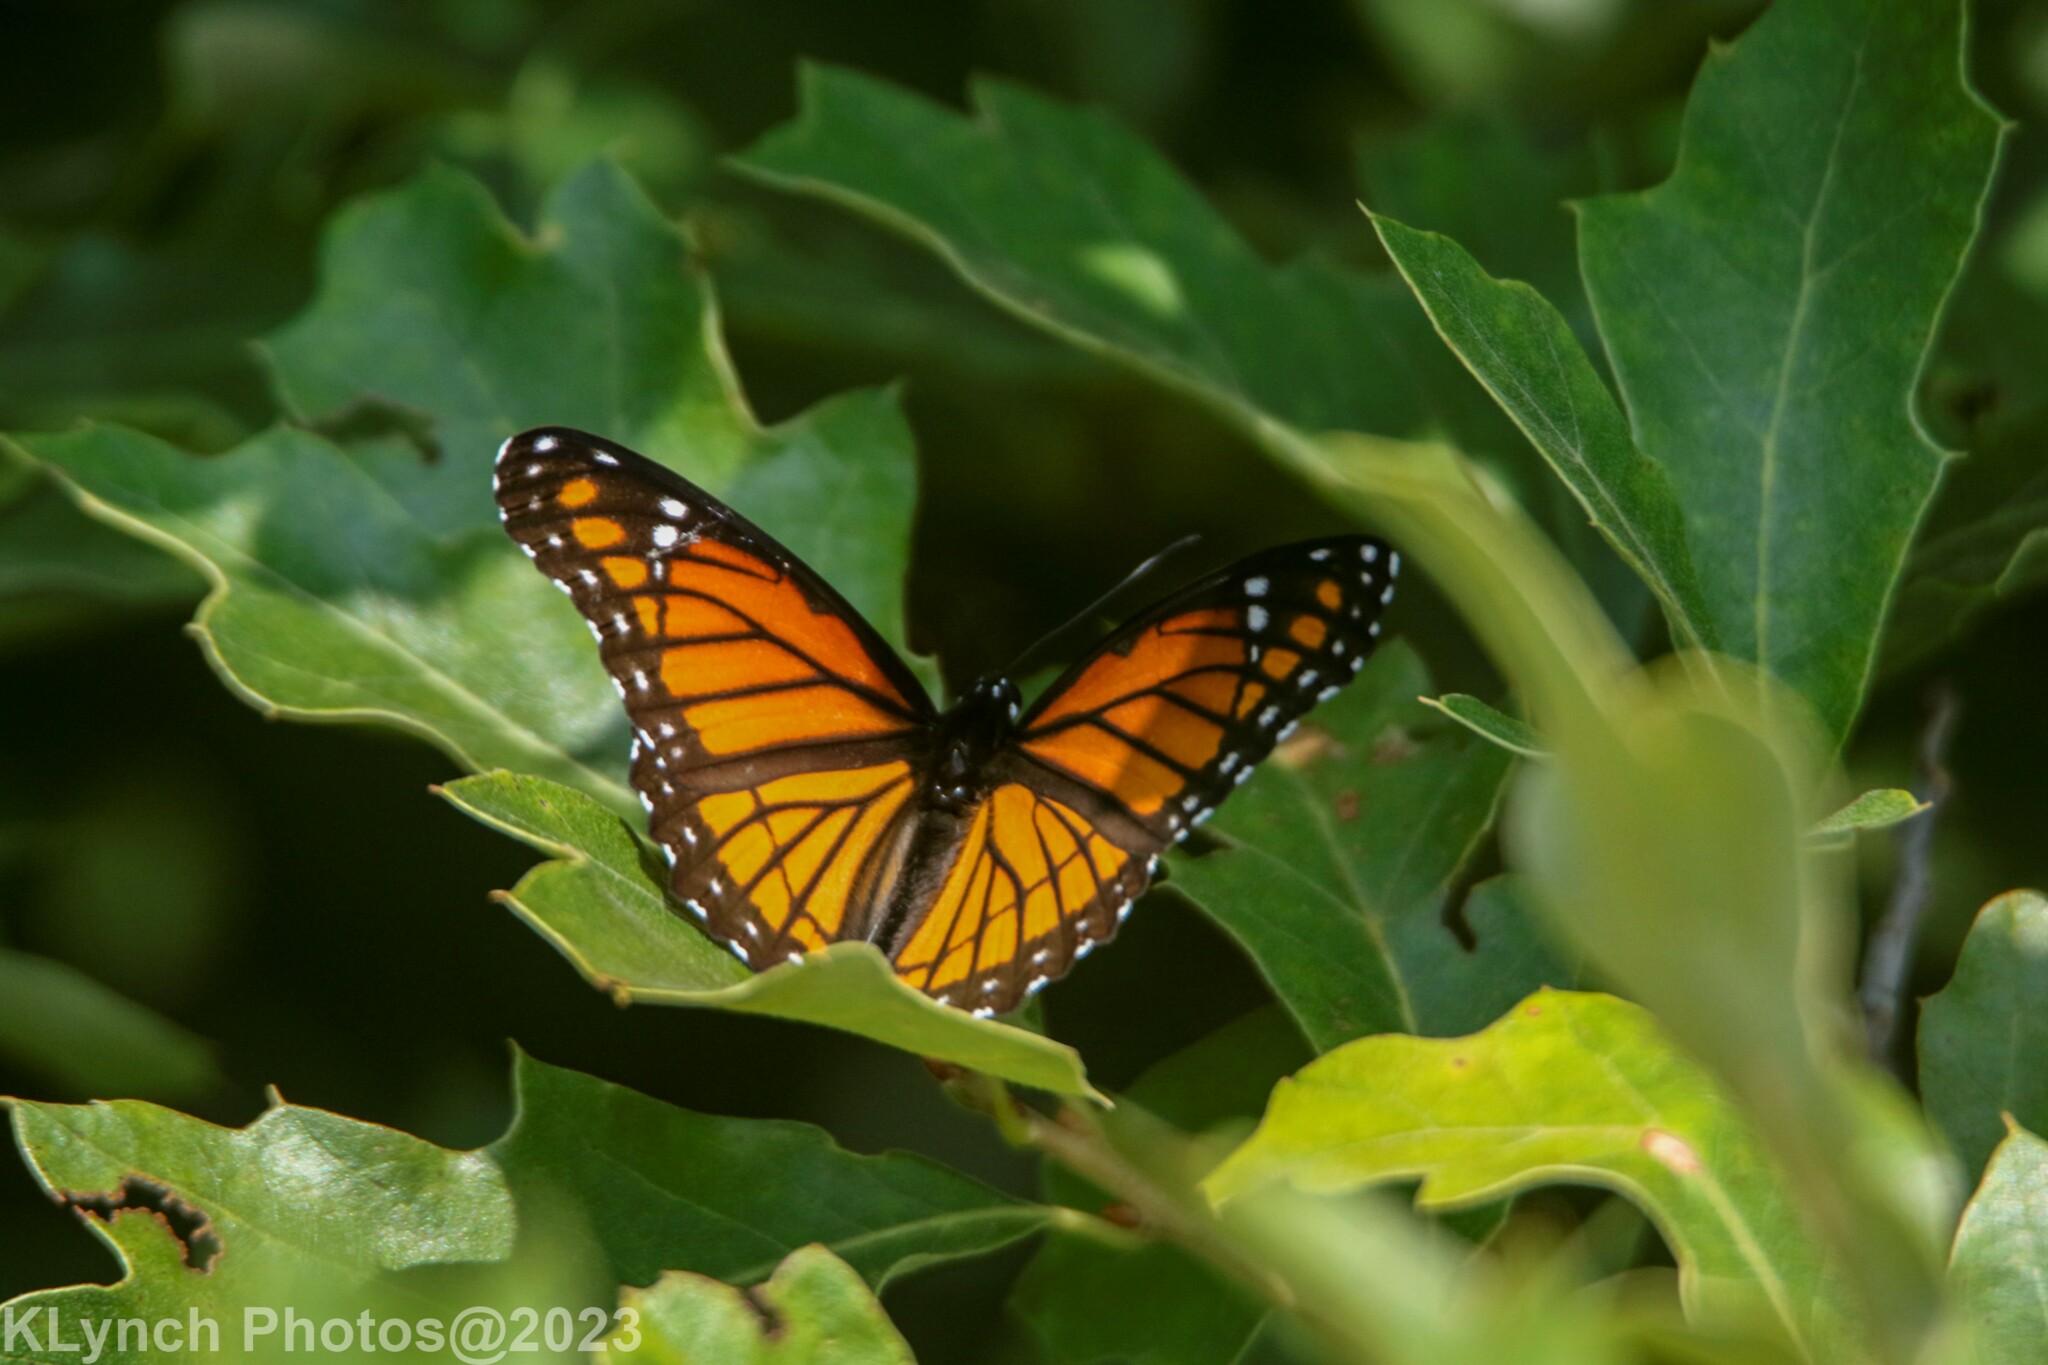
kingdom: Animalia
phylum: Arthropoda
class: Insecta
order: Lepidoptera
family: Nymphalidae
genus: Limenitis
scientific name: Limenitis archippus
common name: Viceroy
